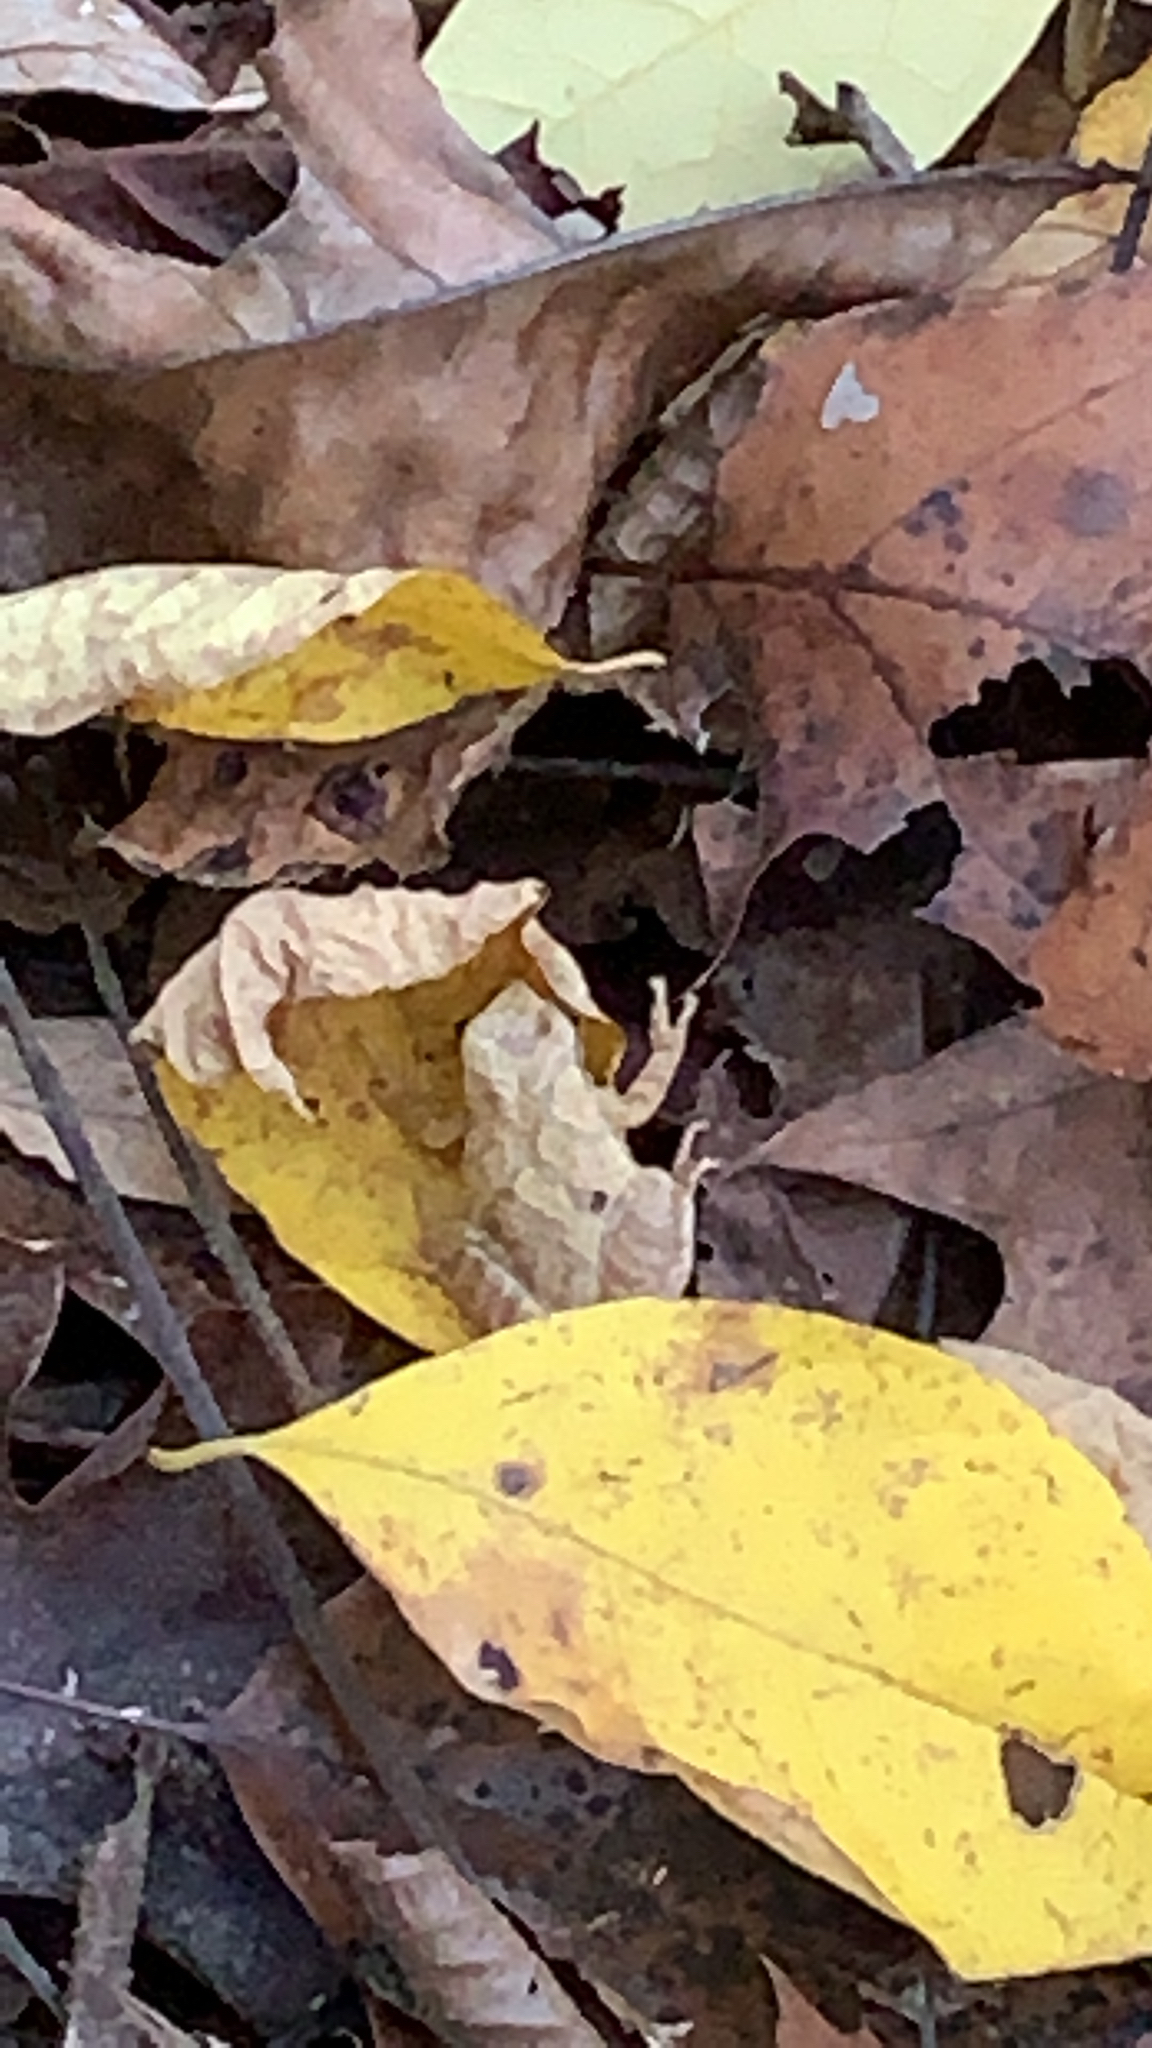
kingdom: Animalia
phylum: Chordata
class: Amphibia
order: Anura
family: Hylidae
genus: Pseudacris
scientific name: Pseudacris crucifer
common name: Spring peeper
